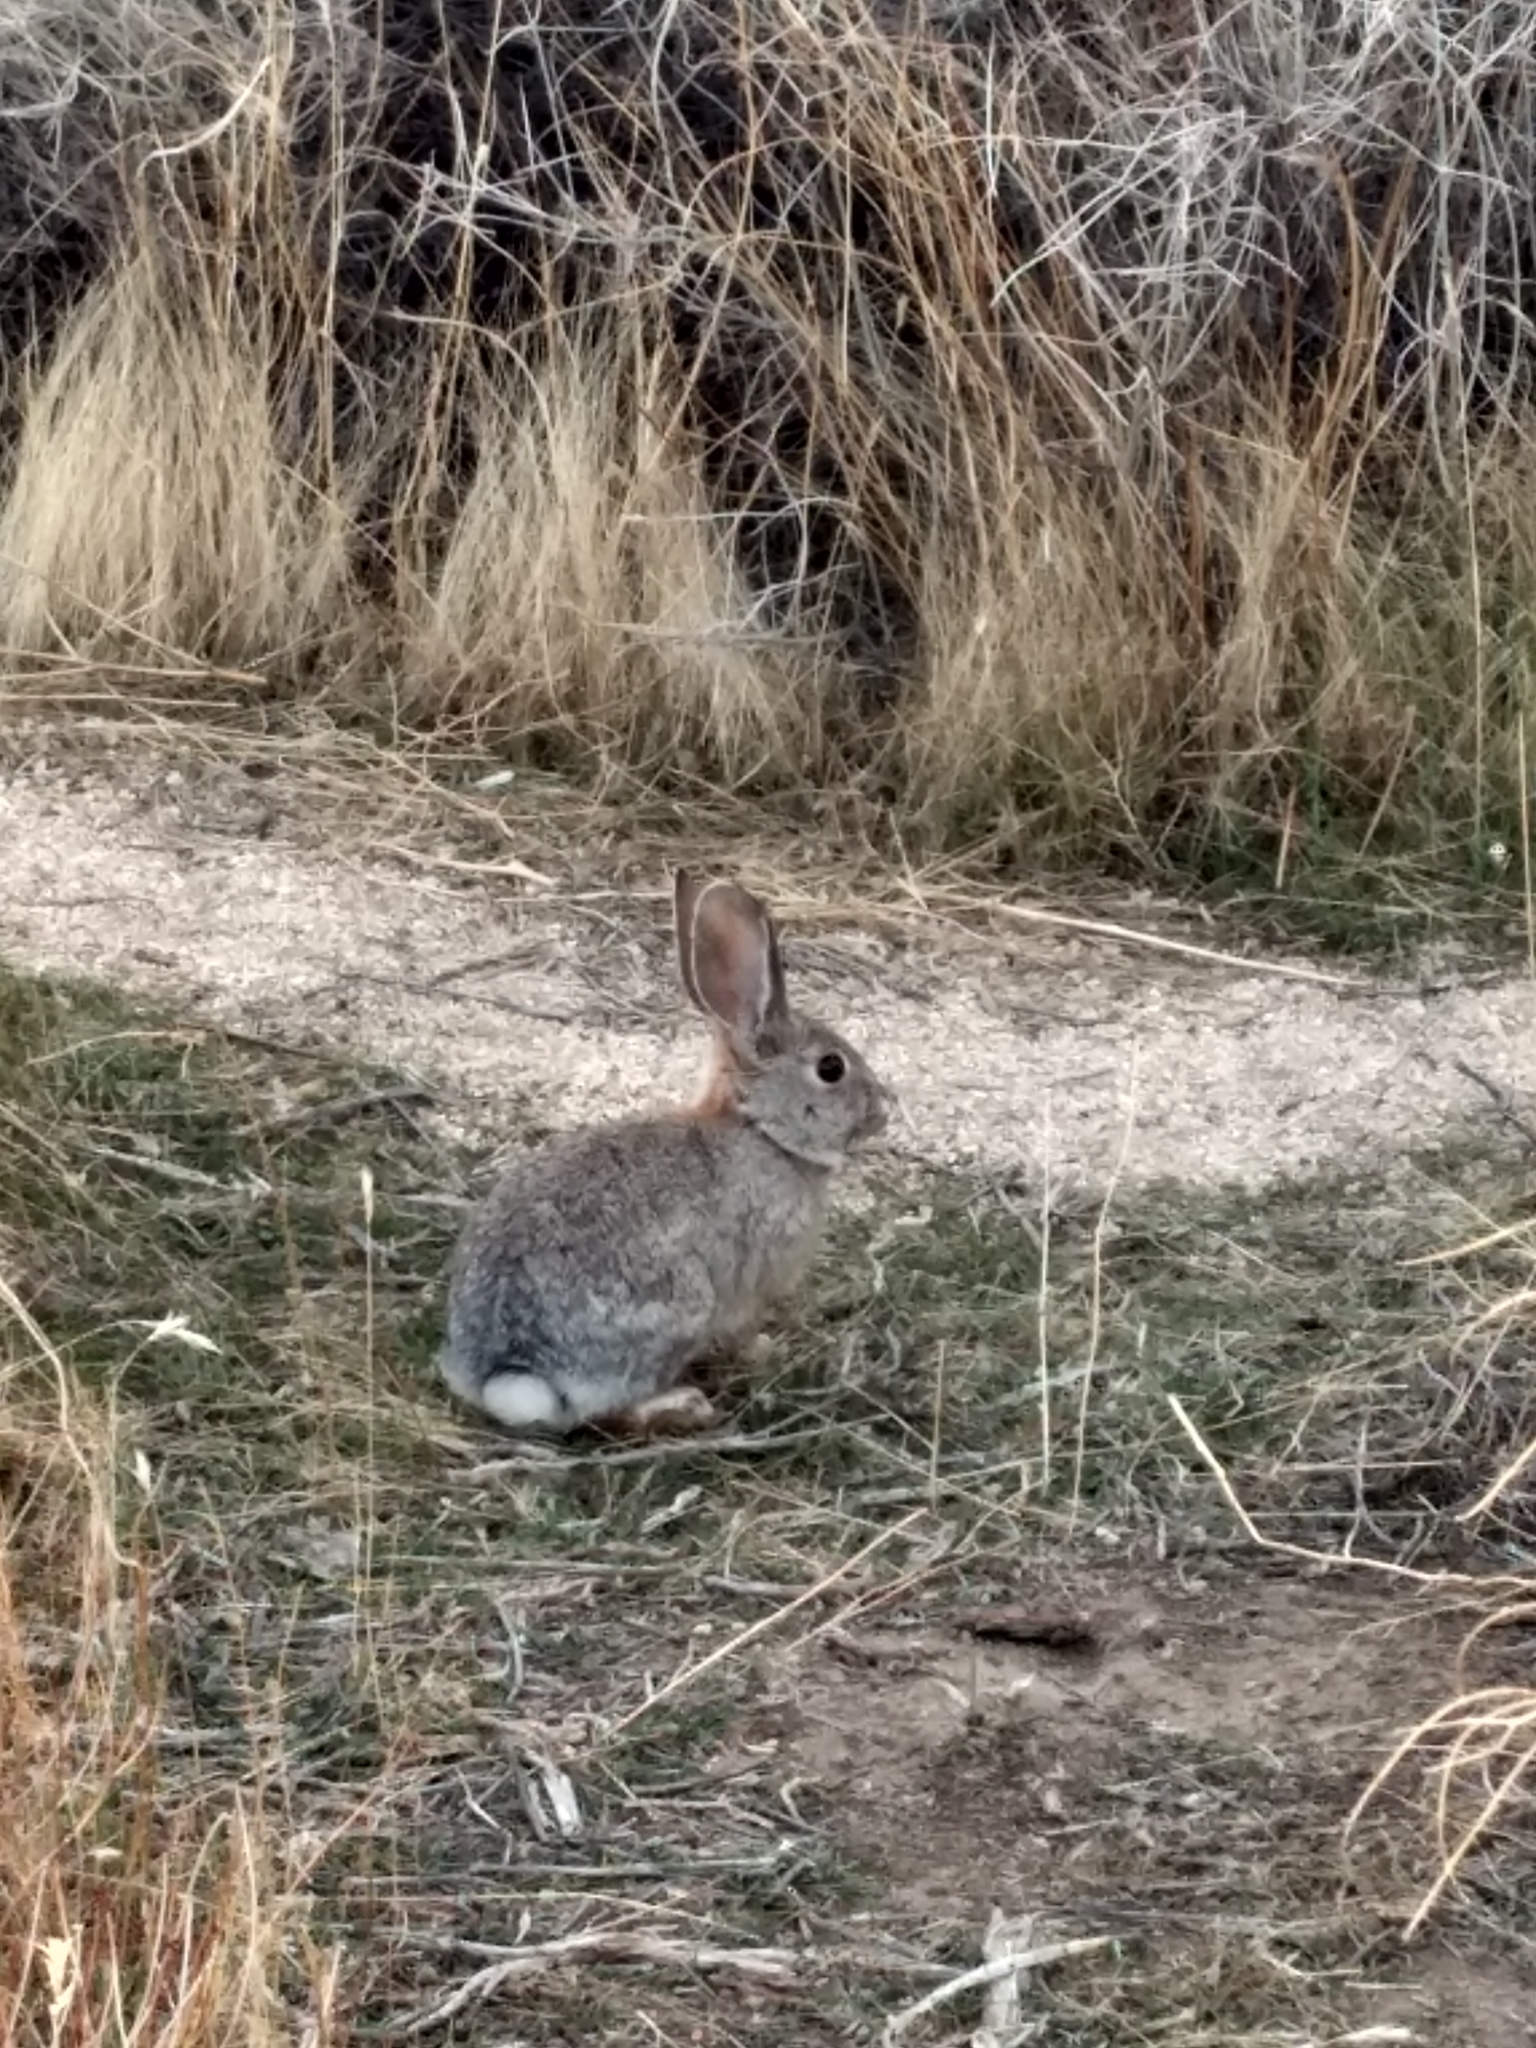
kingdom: Animalia
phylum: Chordata
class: Mammalia
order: Lagomorpha
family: Leporidae
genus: Sylvilagus
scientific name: Sylvilagus audubonii
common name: Desert cottontail
